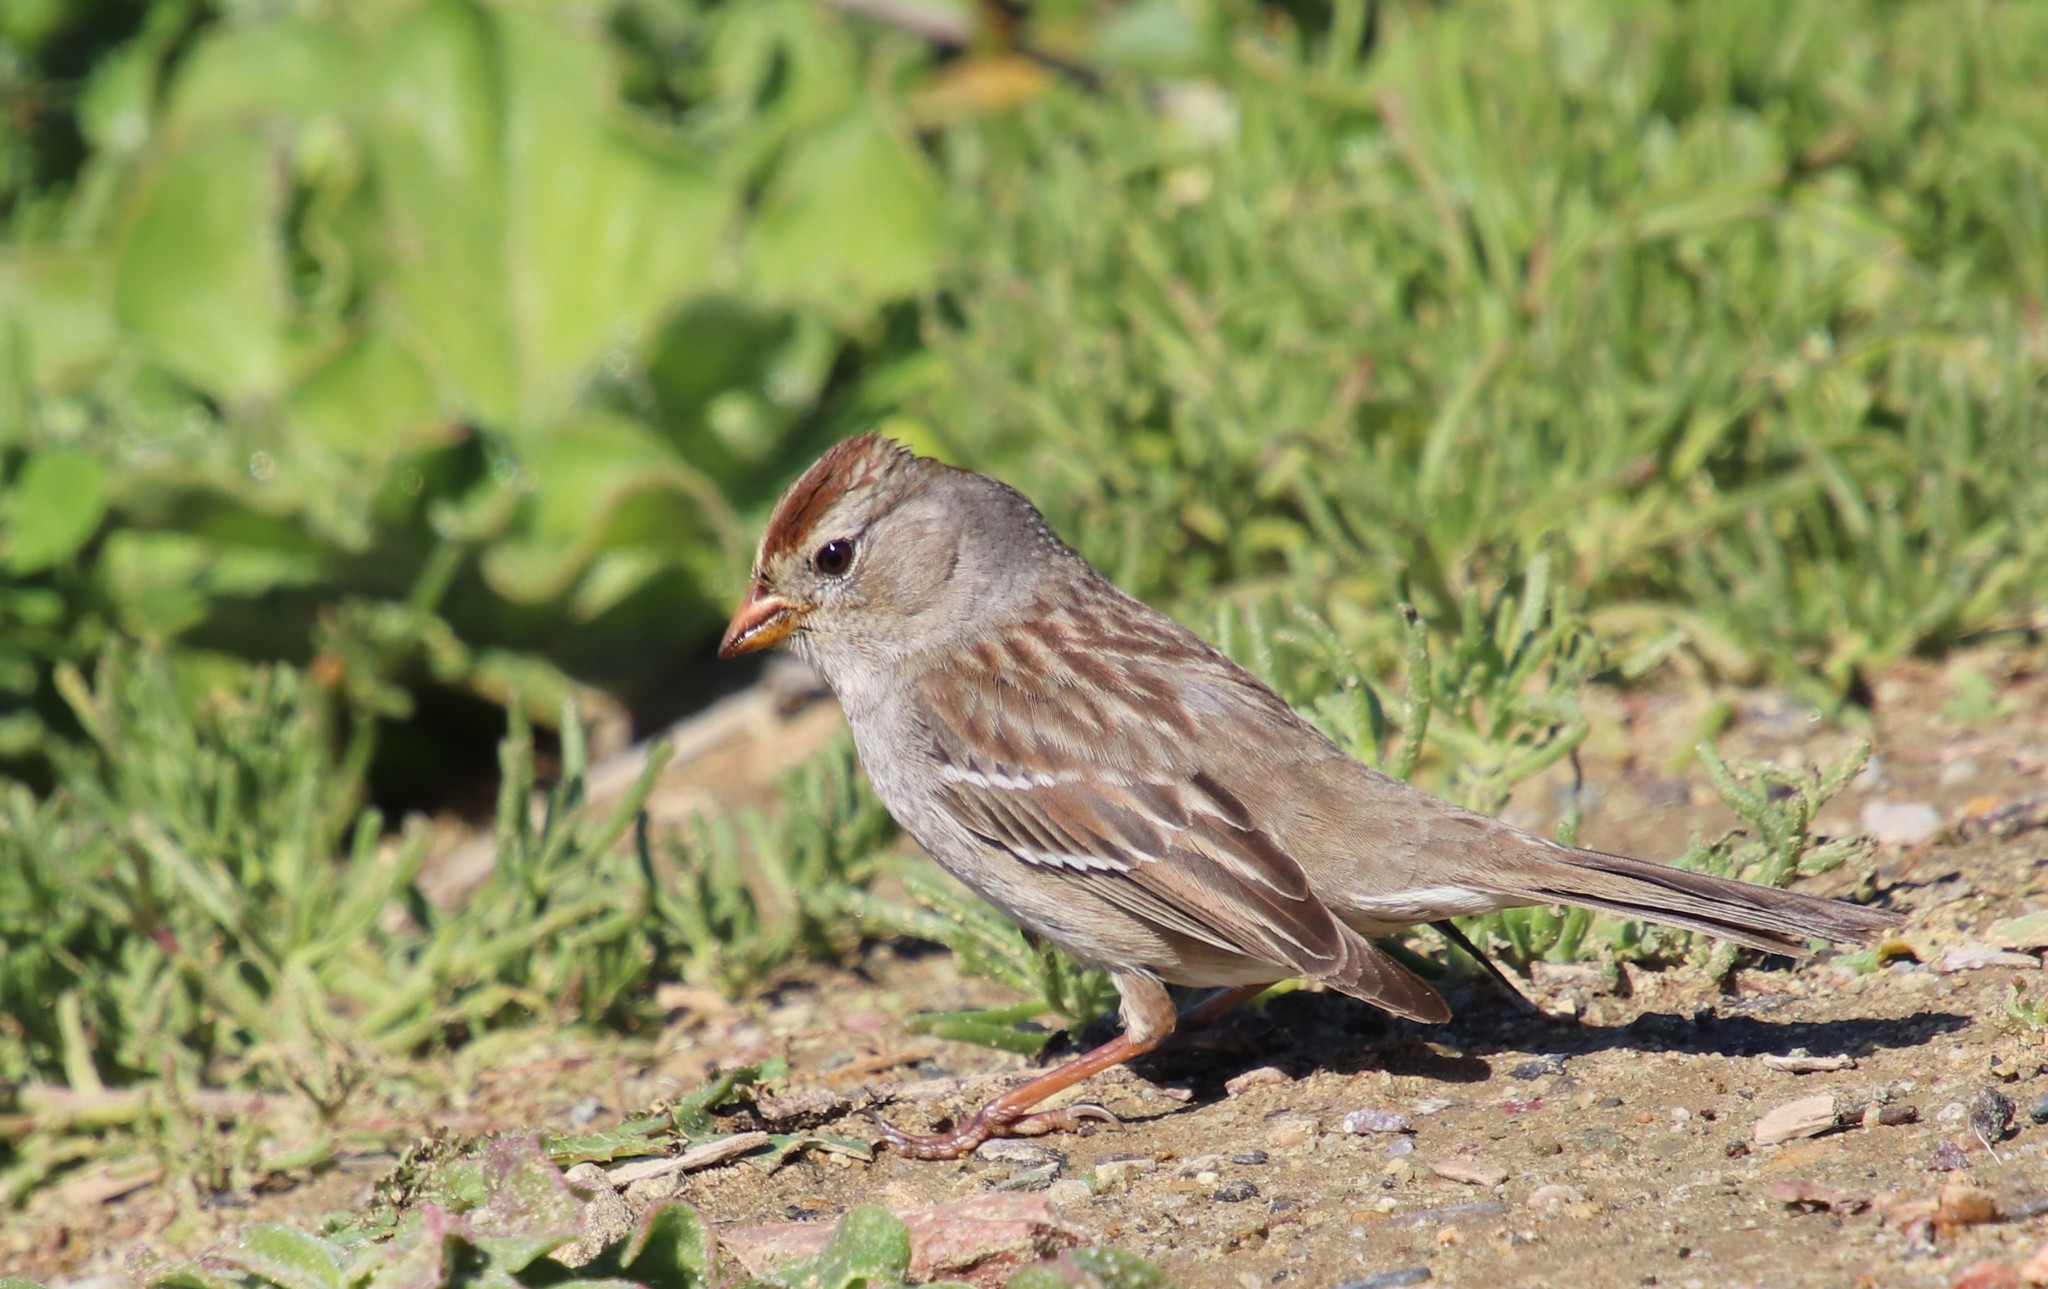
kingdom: Animalia
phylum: Chordata
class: Aves
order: Passeriformes
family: Passerellidae
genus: Zonotrichia
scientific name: Zonotrichia leucophrys
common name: White-crowned sparrow
